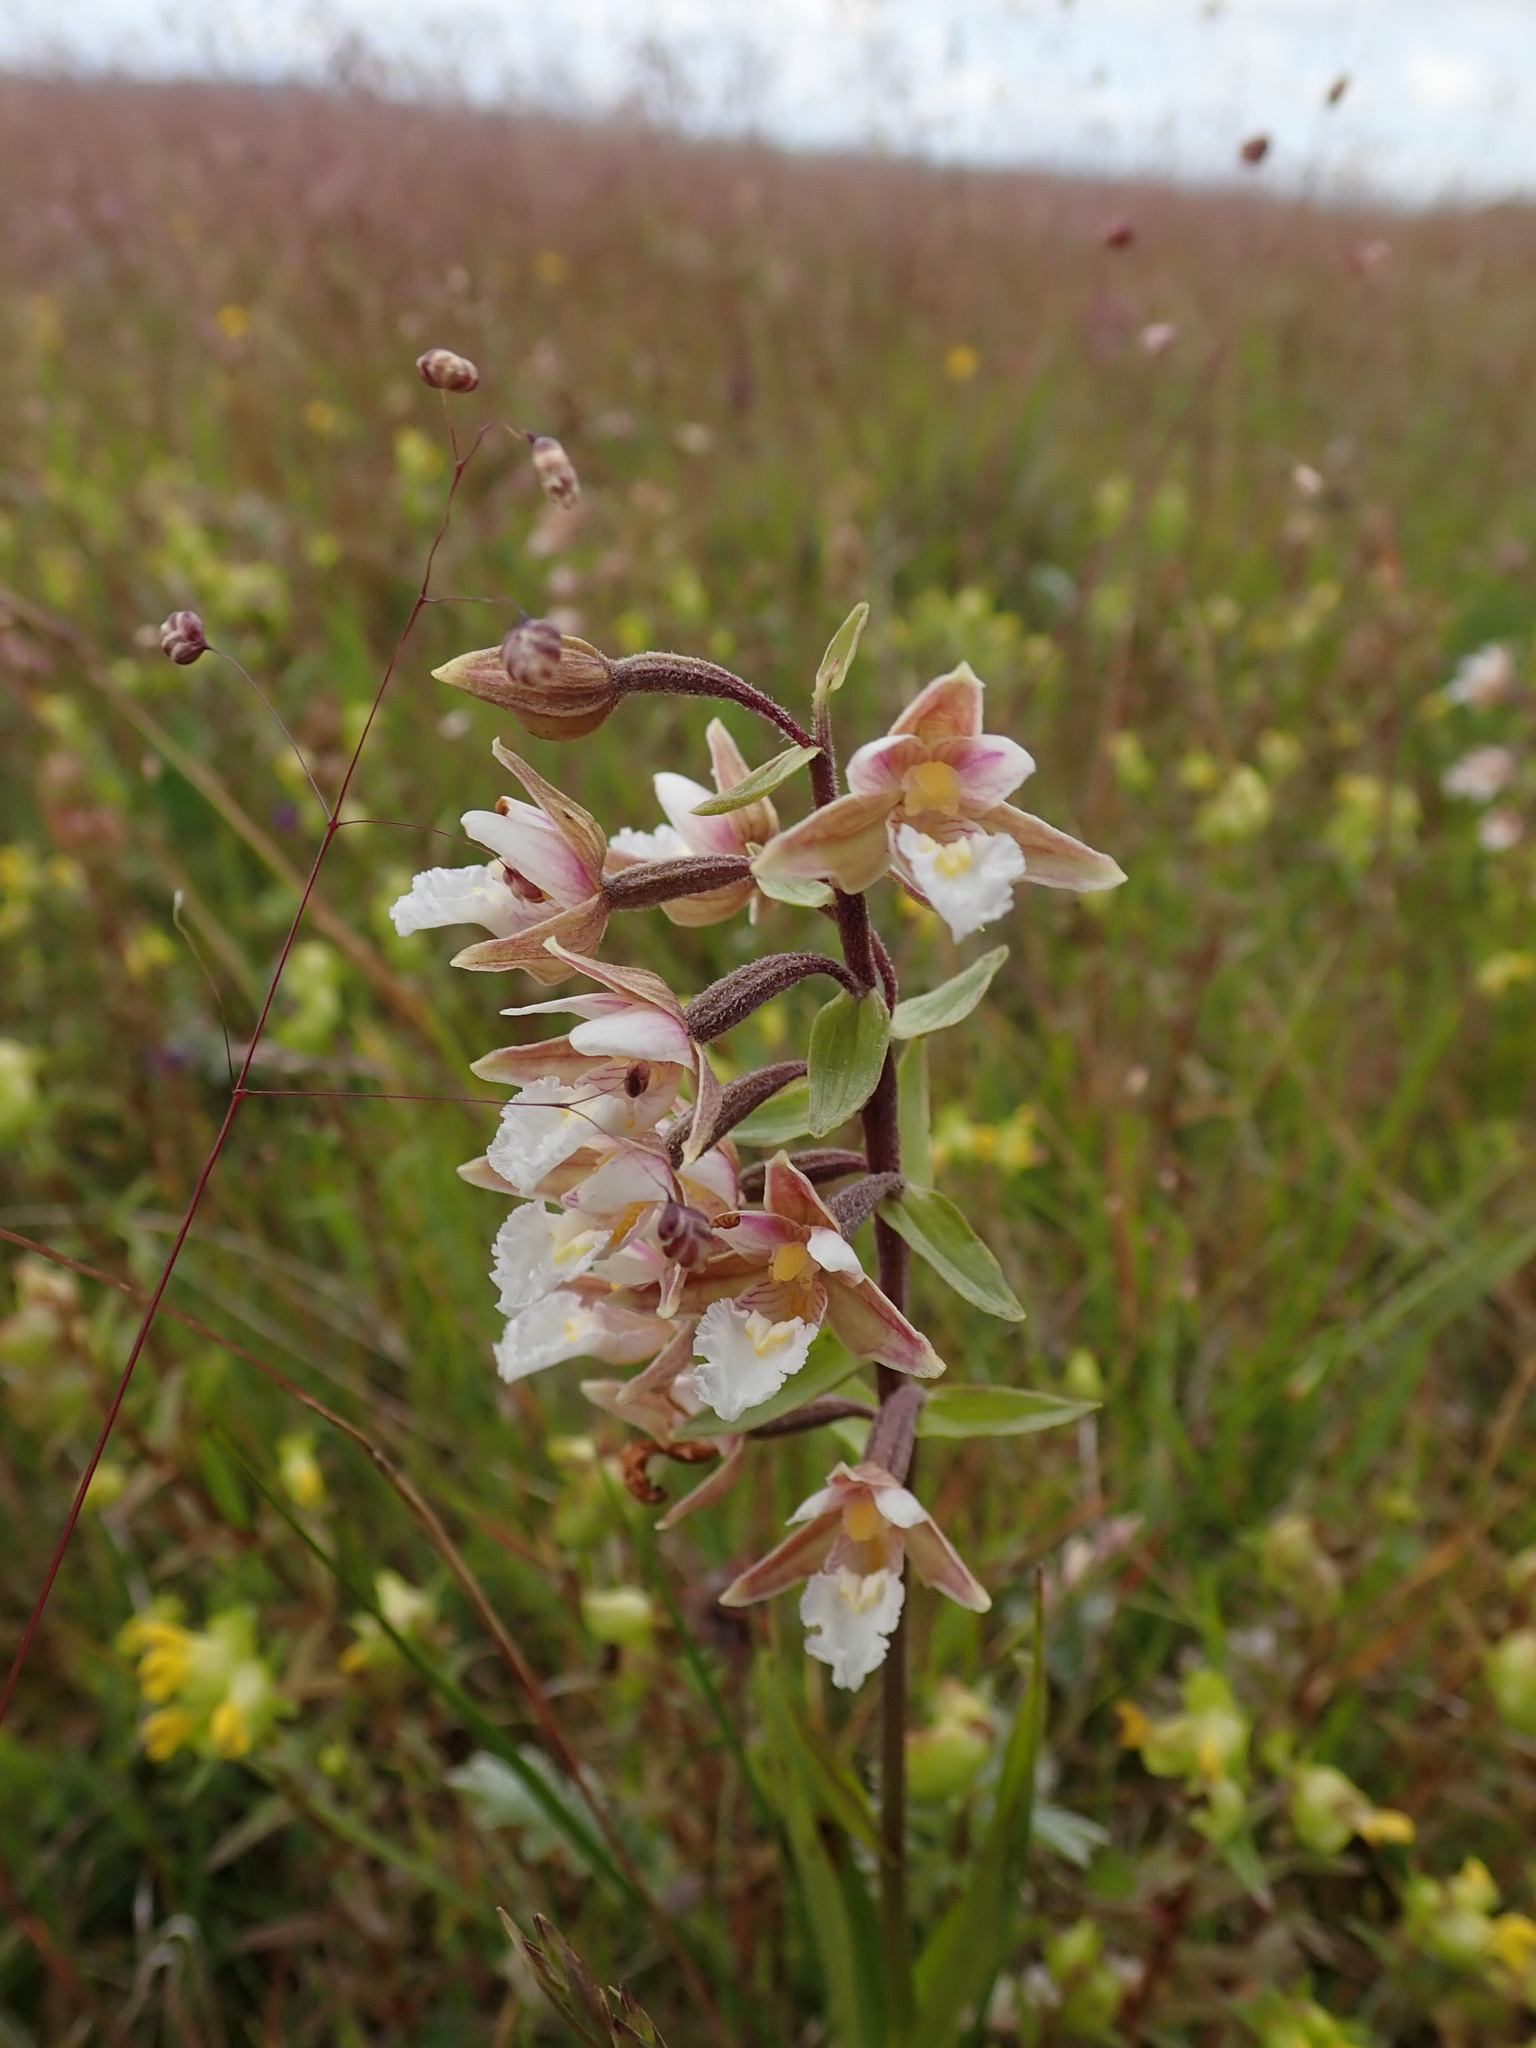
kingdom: Plantae
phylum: Tracheophyta
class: Liliopsida
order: Asparagales
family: Orchidaceae
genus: Epipactis
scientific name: Epipactis palustris
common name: Marsh helleborine
